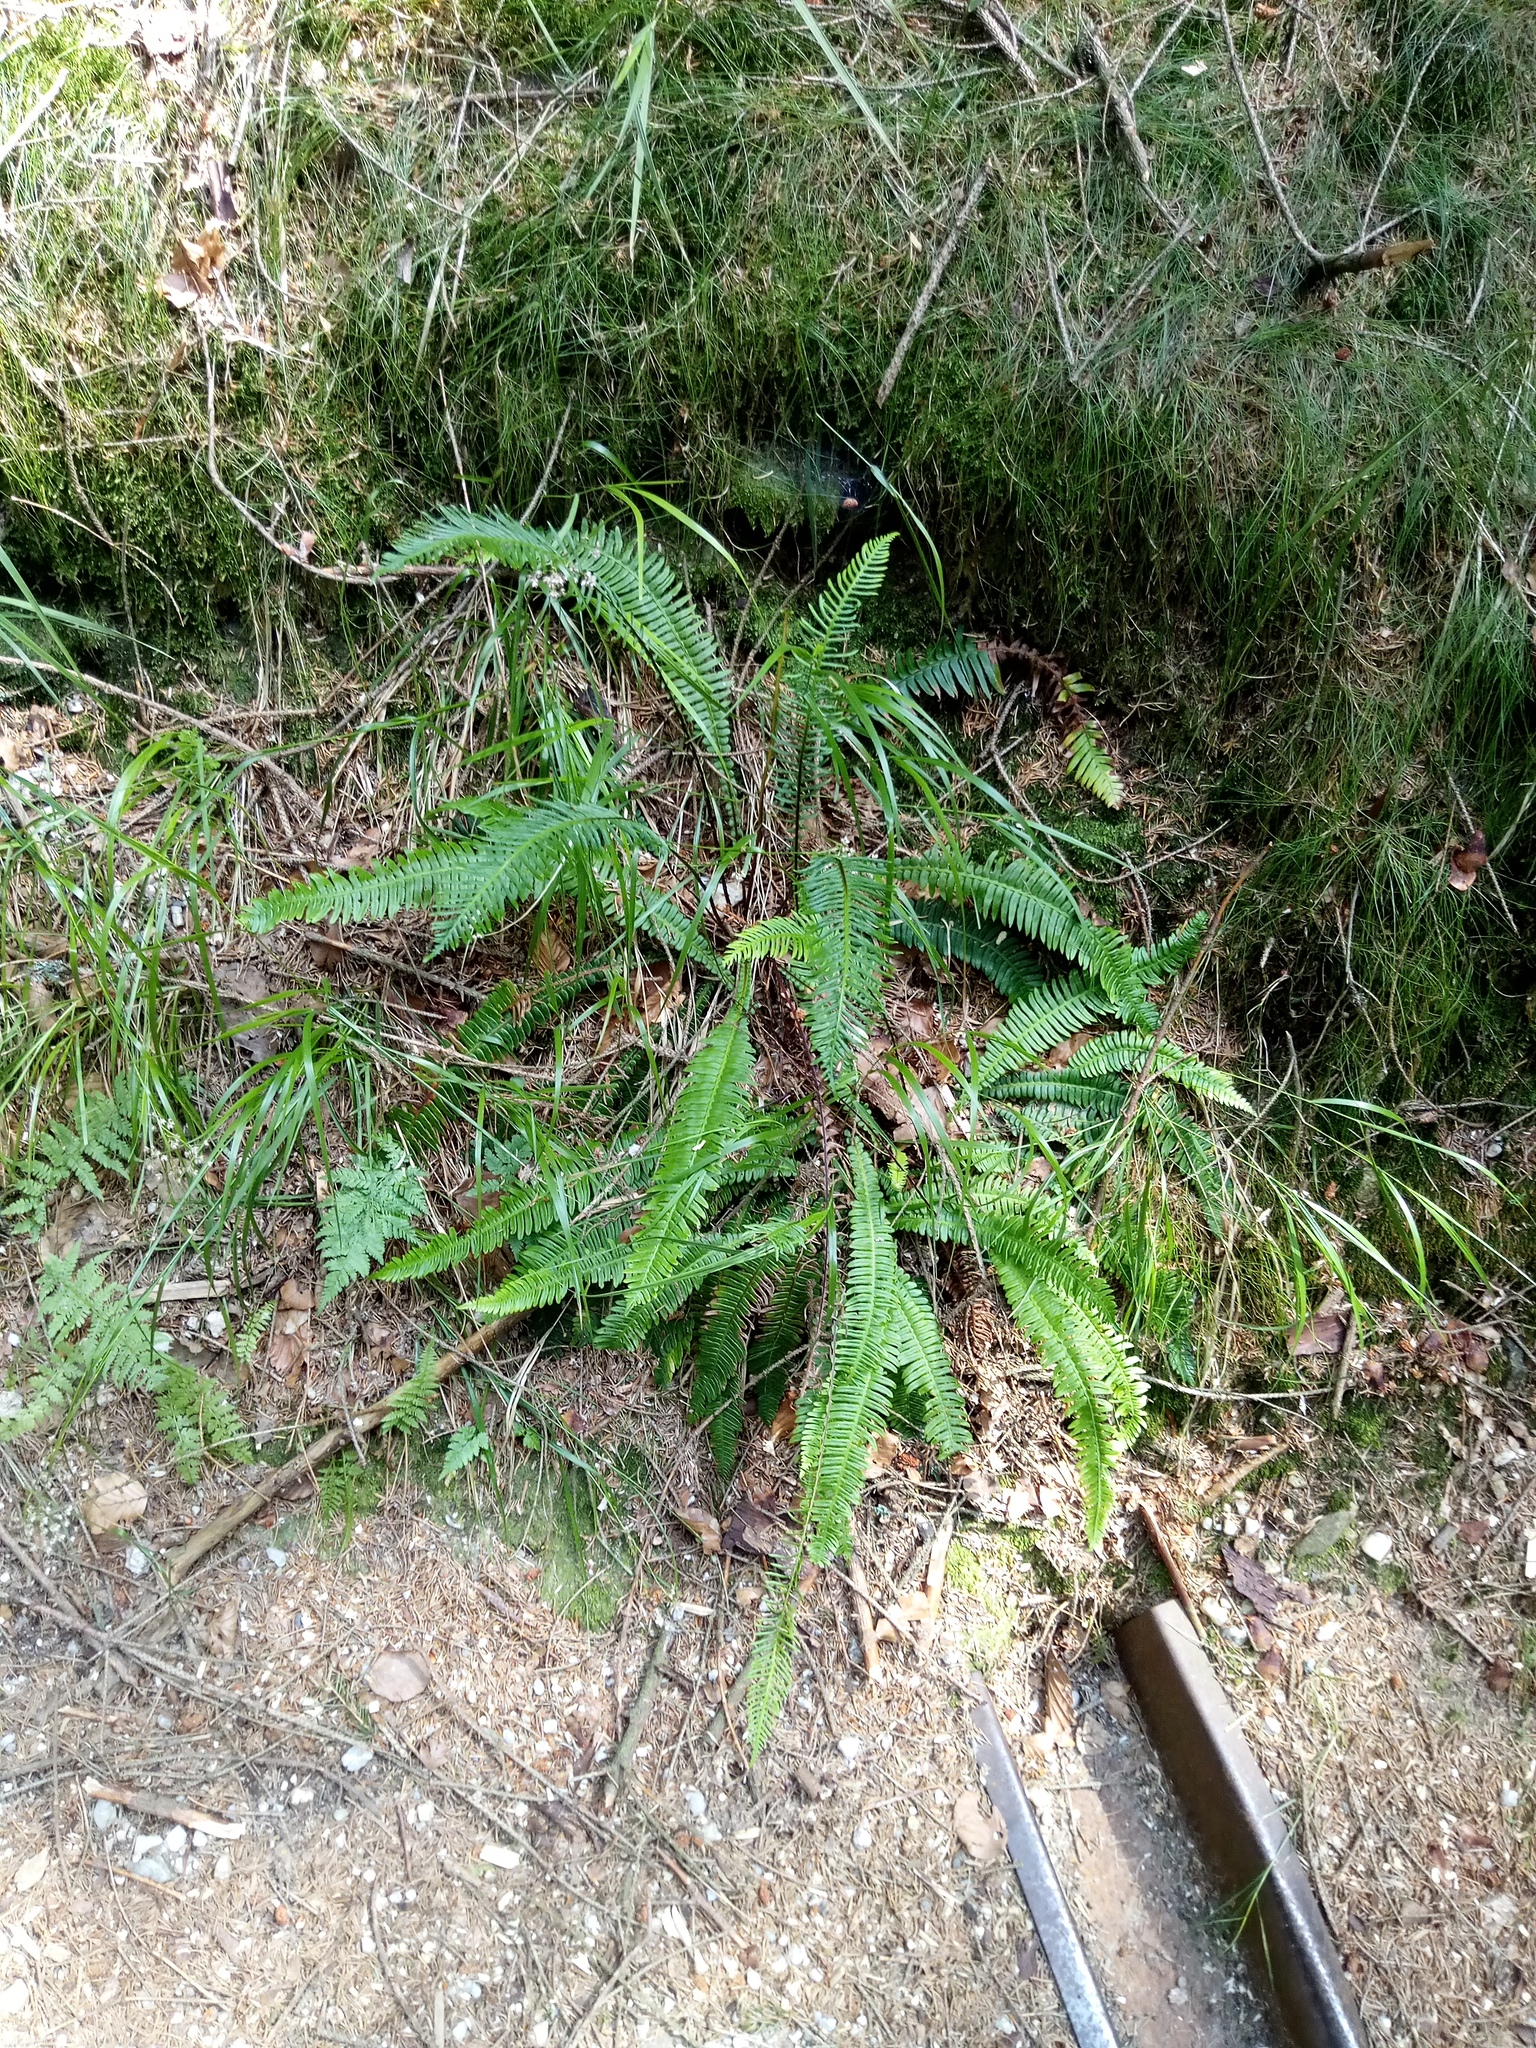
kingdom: Plantae
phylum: Tracheophyta
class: Polypodiopsida
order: Polypodiales
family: Blechnaceae
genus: Struthiopteris
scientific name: Struthiopteris spicant
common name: Deer fern
